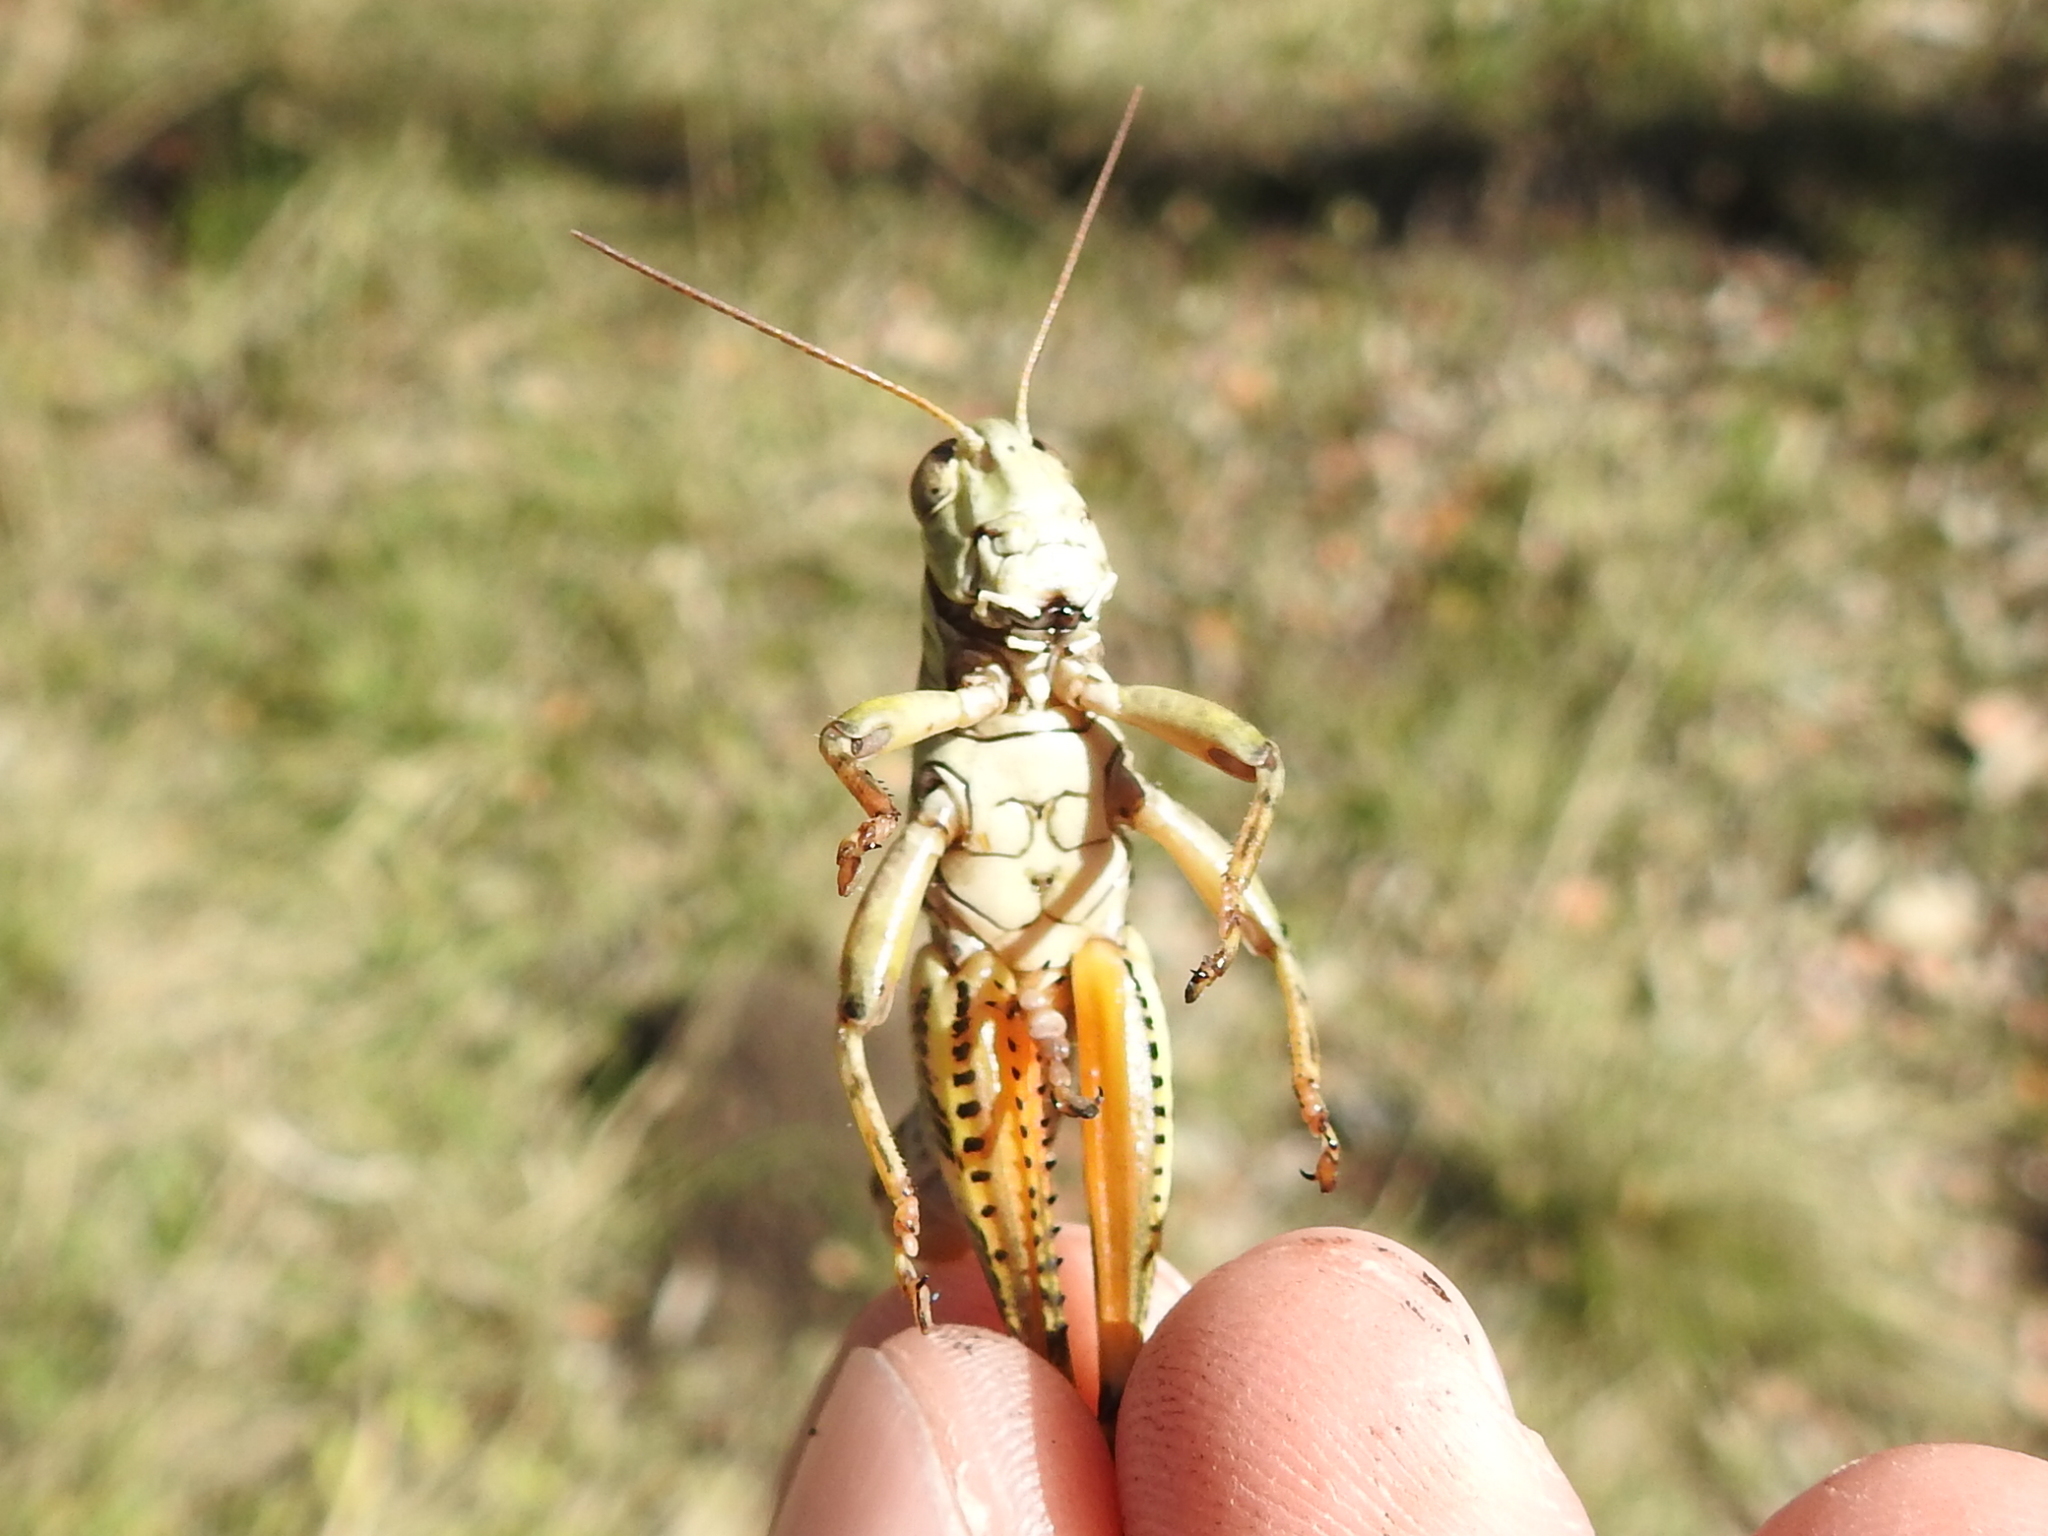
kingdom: Animalia
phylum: Arthropoda
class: Insecta
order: Orthoptera
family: Acrididae
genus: Melanoplus
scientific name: Melanoplus ponderosus
